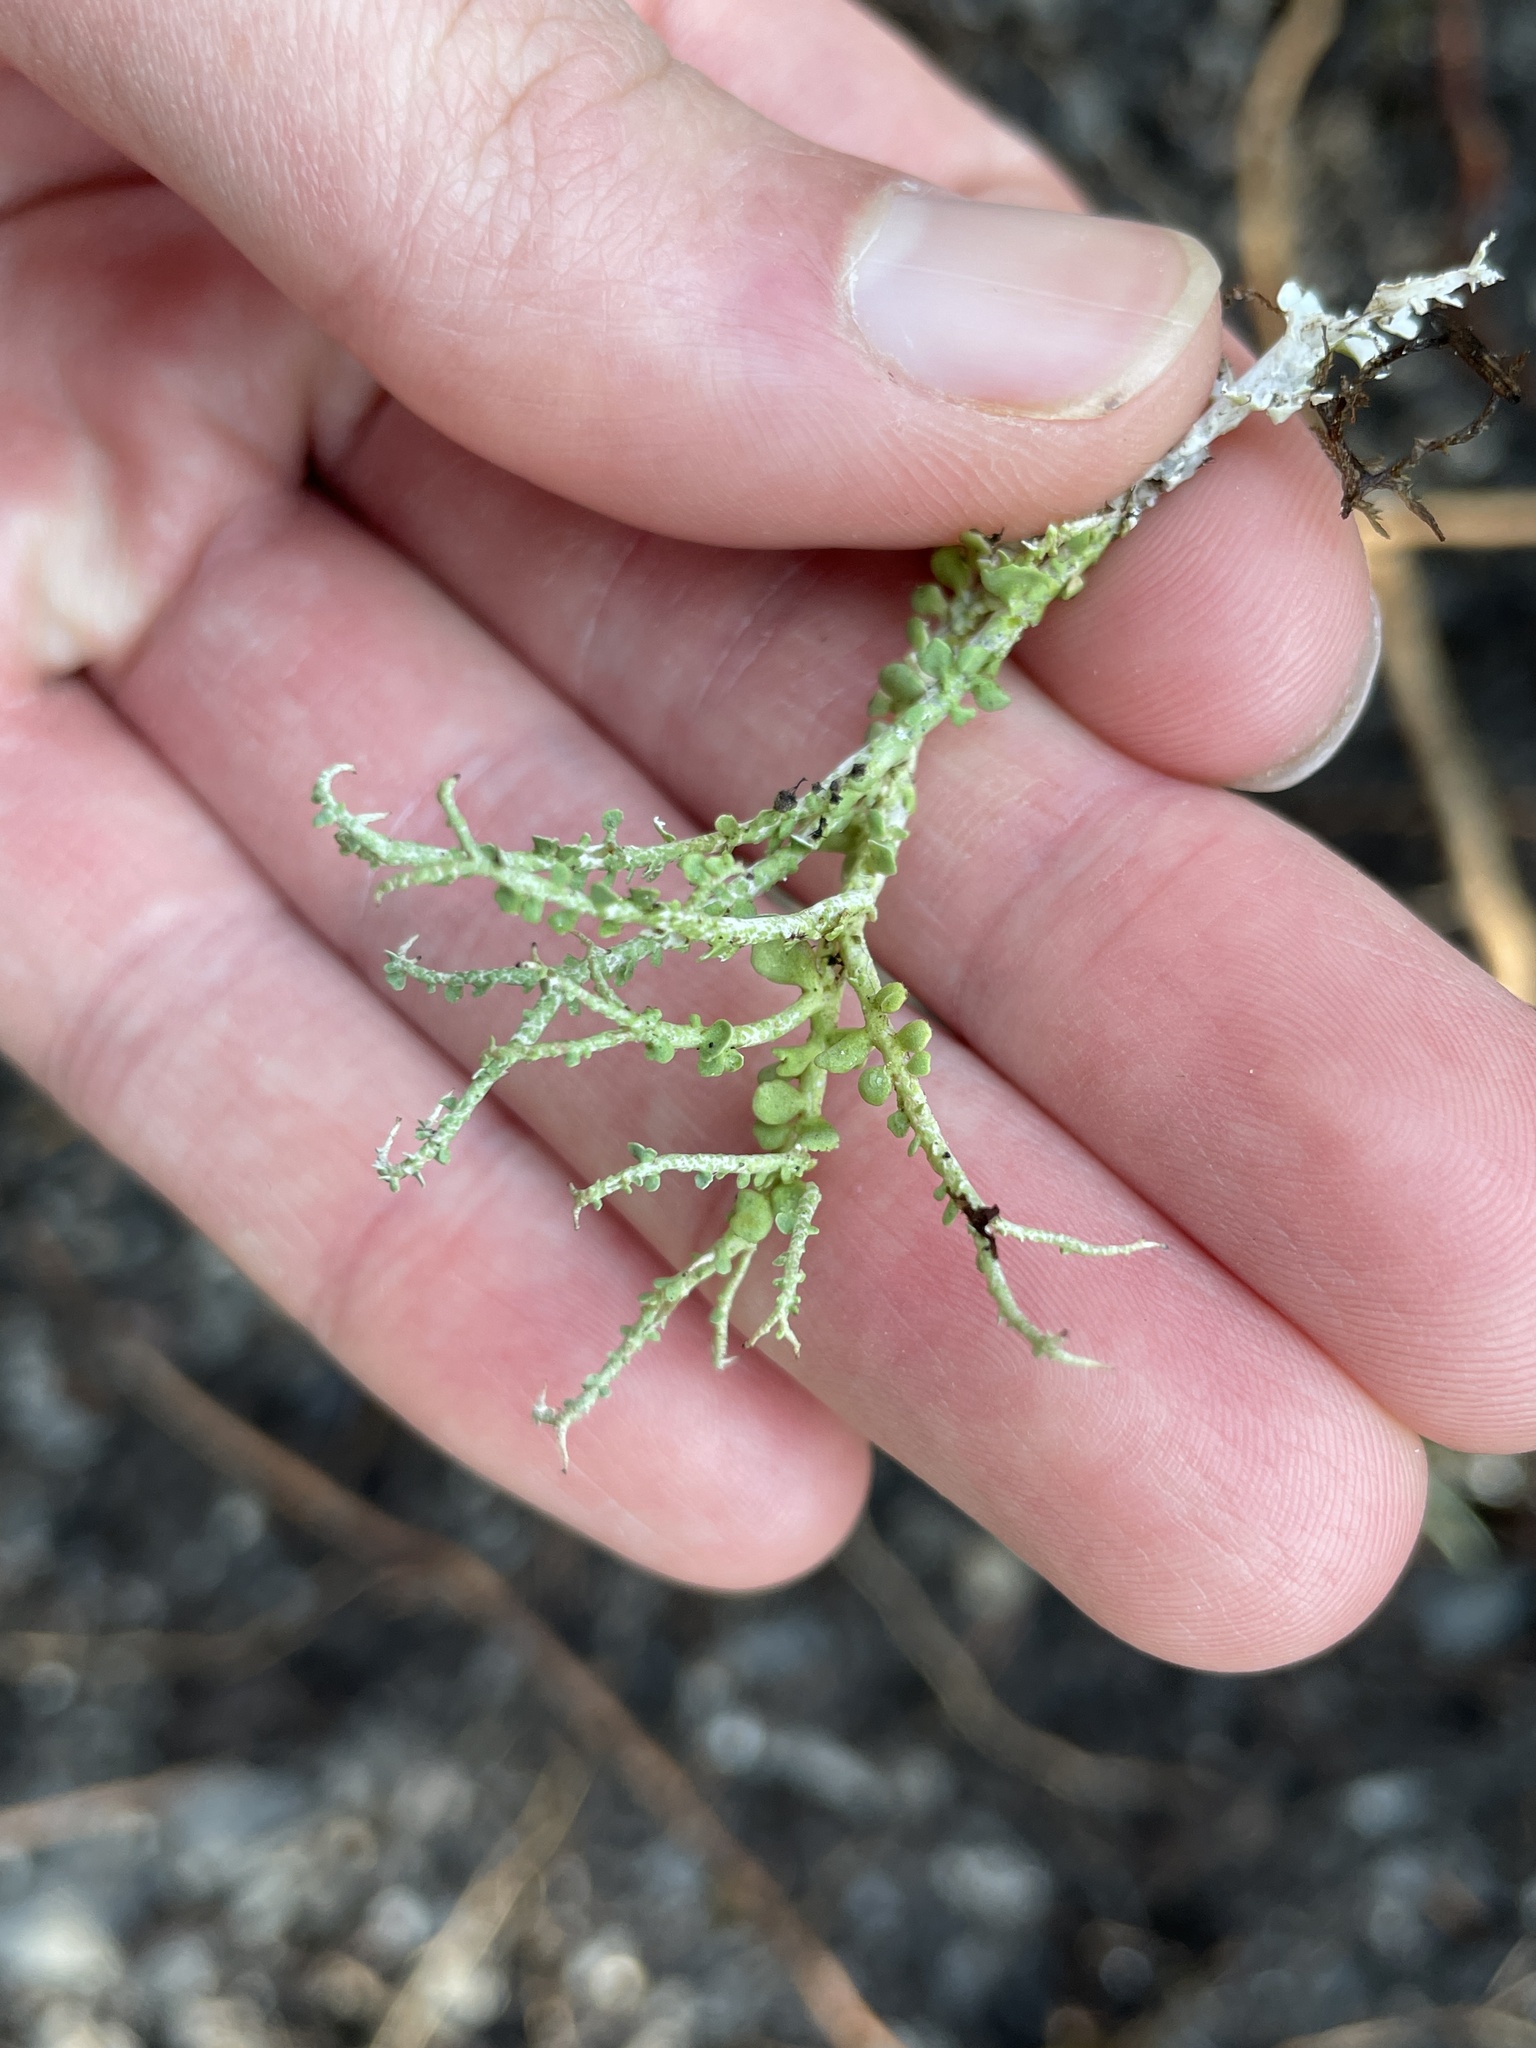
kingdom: Fungi
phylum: Ascomycota
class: Lecanoromycetes
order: Lecanorales
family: Cladoniaceae
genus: Cladonia
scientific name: Cladonia furcata
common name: Many-forked cladonia
